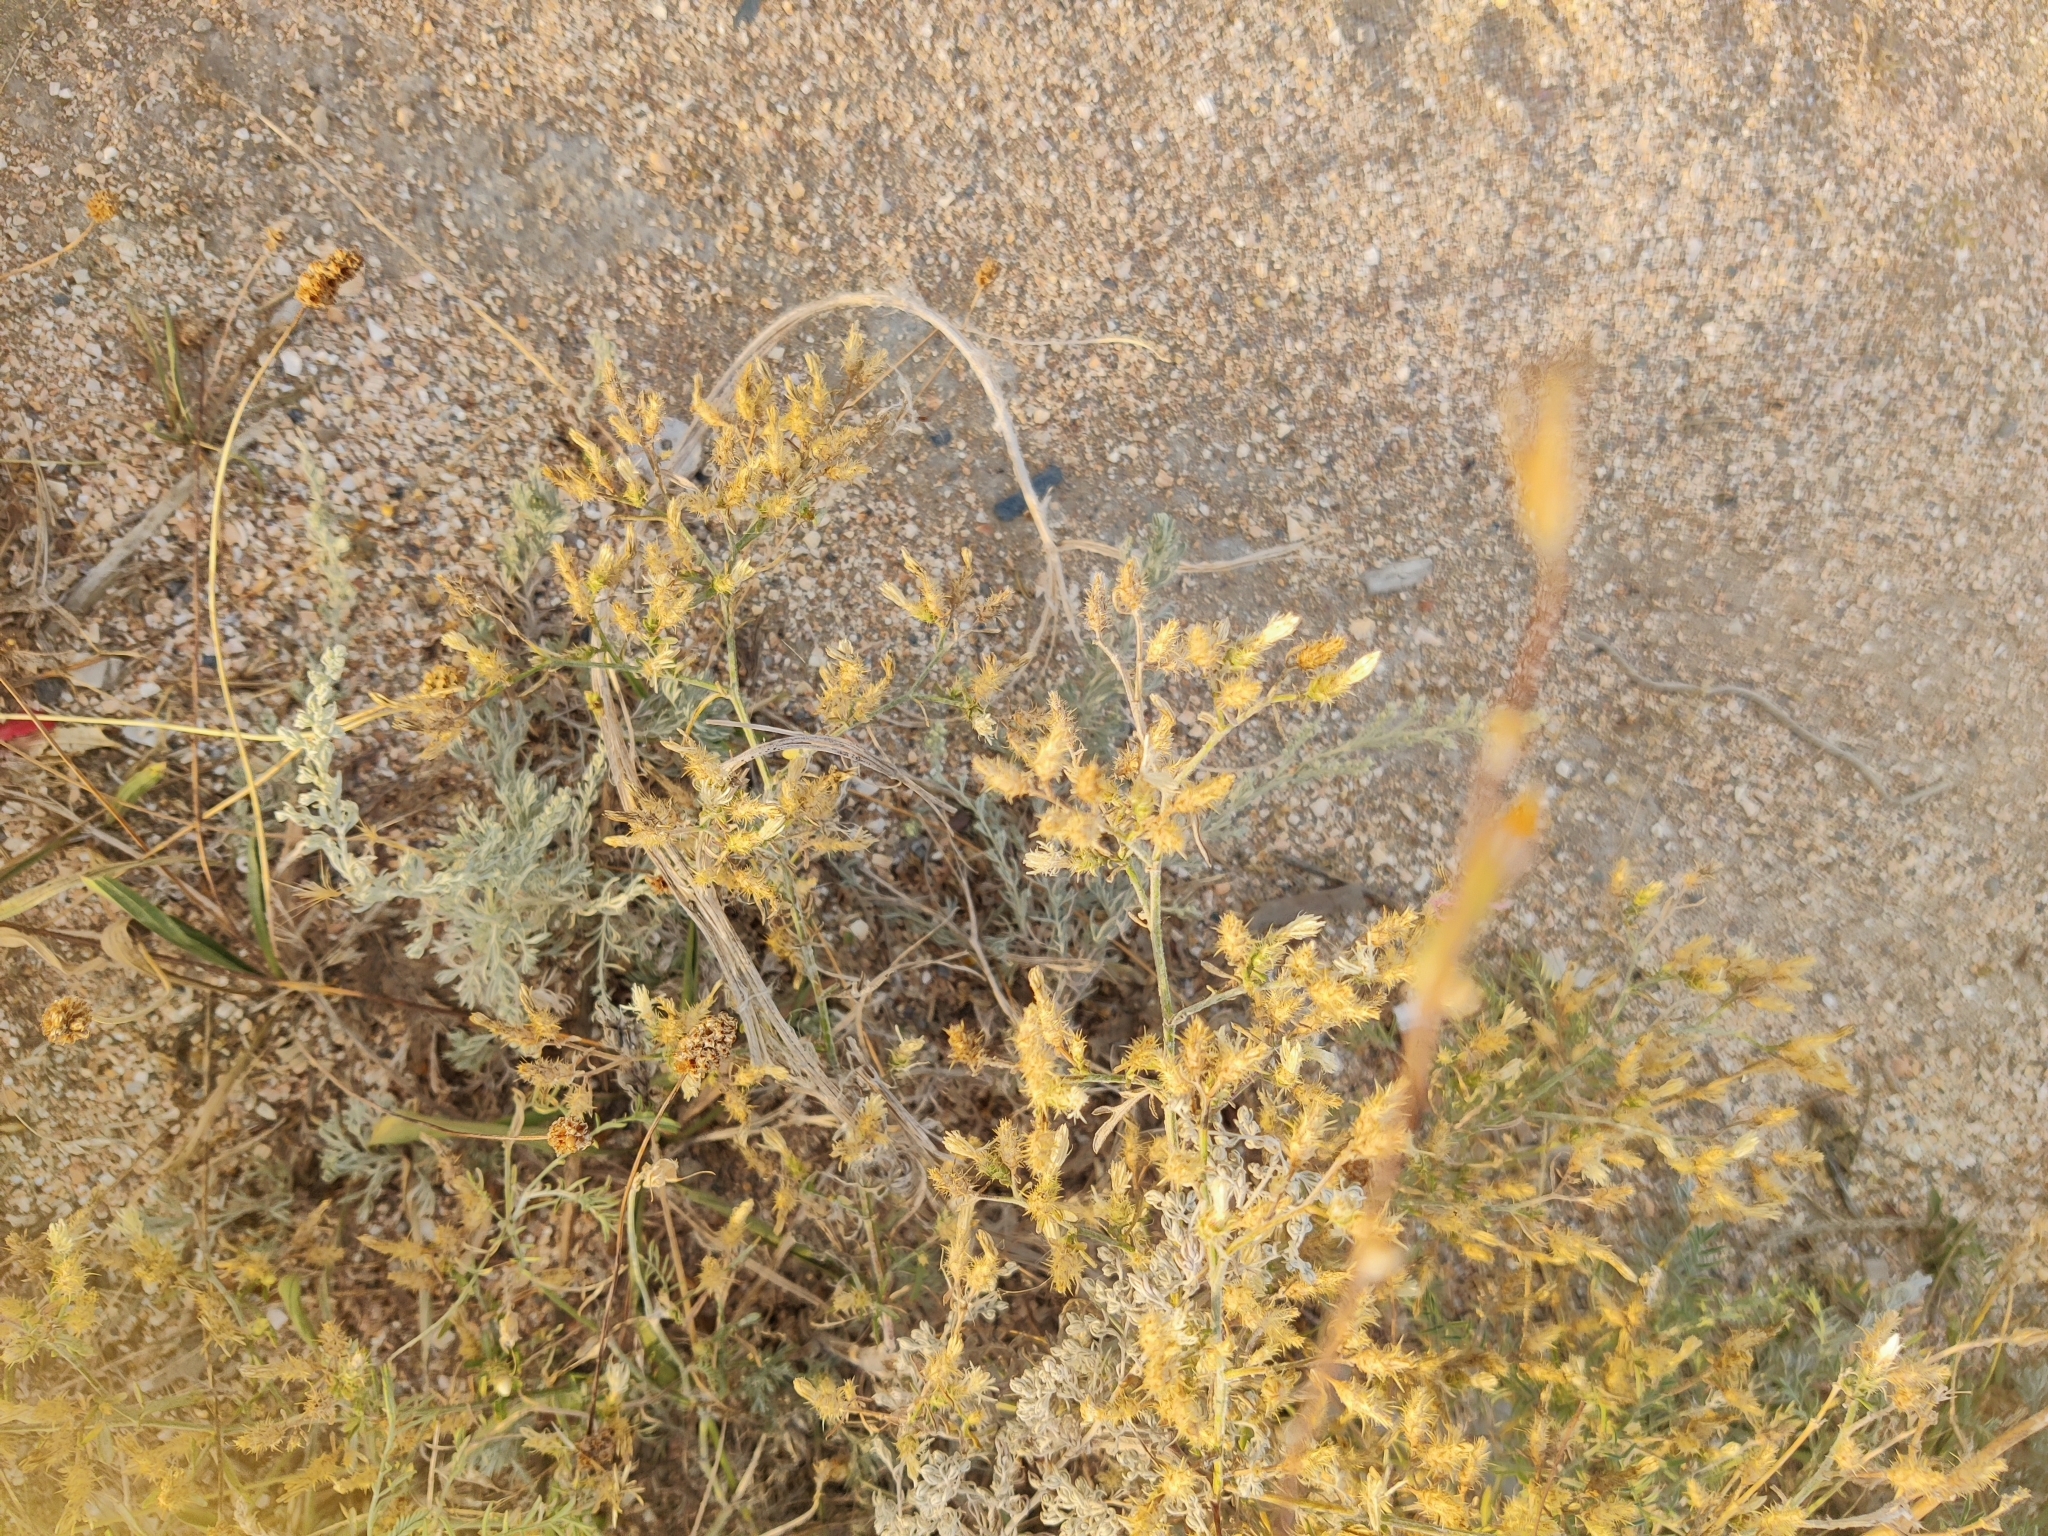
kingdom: Plantae
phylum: Tracheophyta
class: Magnoliopsida
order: Asterales
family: Asteraceae
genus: Centaurea
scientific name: Centaurea diffusa
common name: Diffuse knapweed
